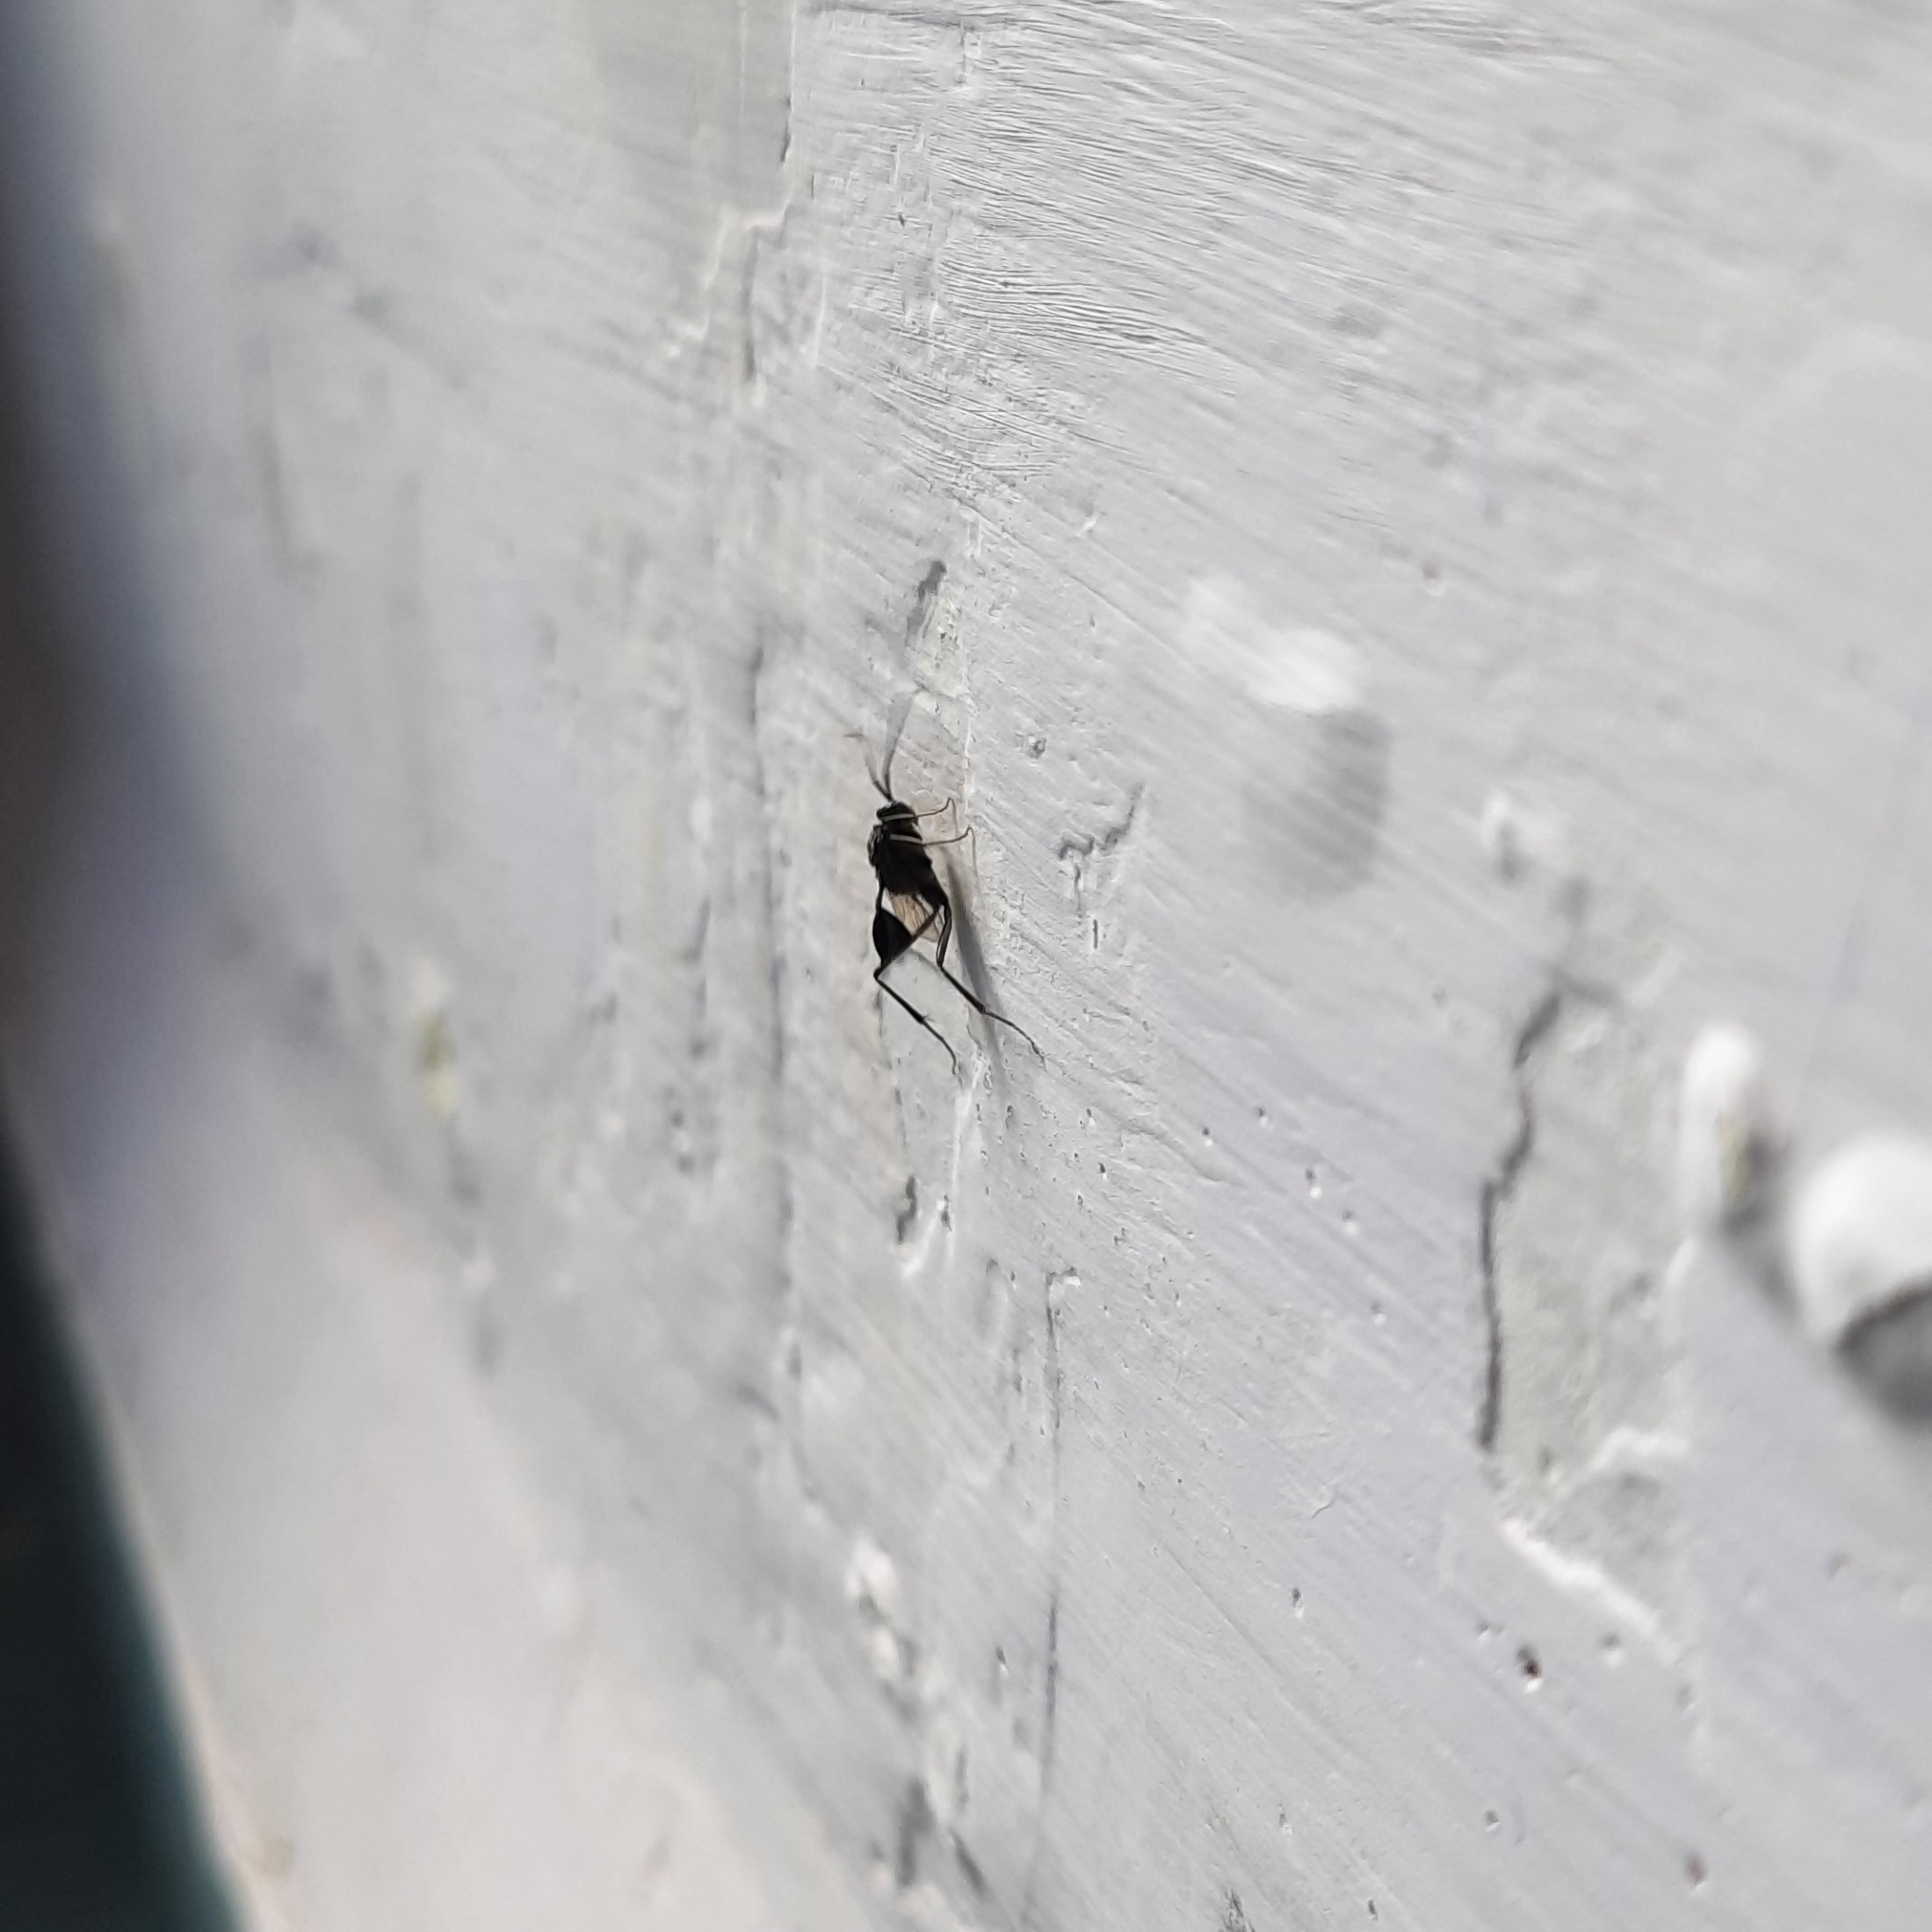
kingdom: Animalia
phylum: Arthropoda
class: Insecta
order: Hymenoptera
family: Evaniidae
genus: Evania
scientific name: Evania appendigaster
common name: Ensign wasp
